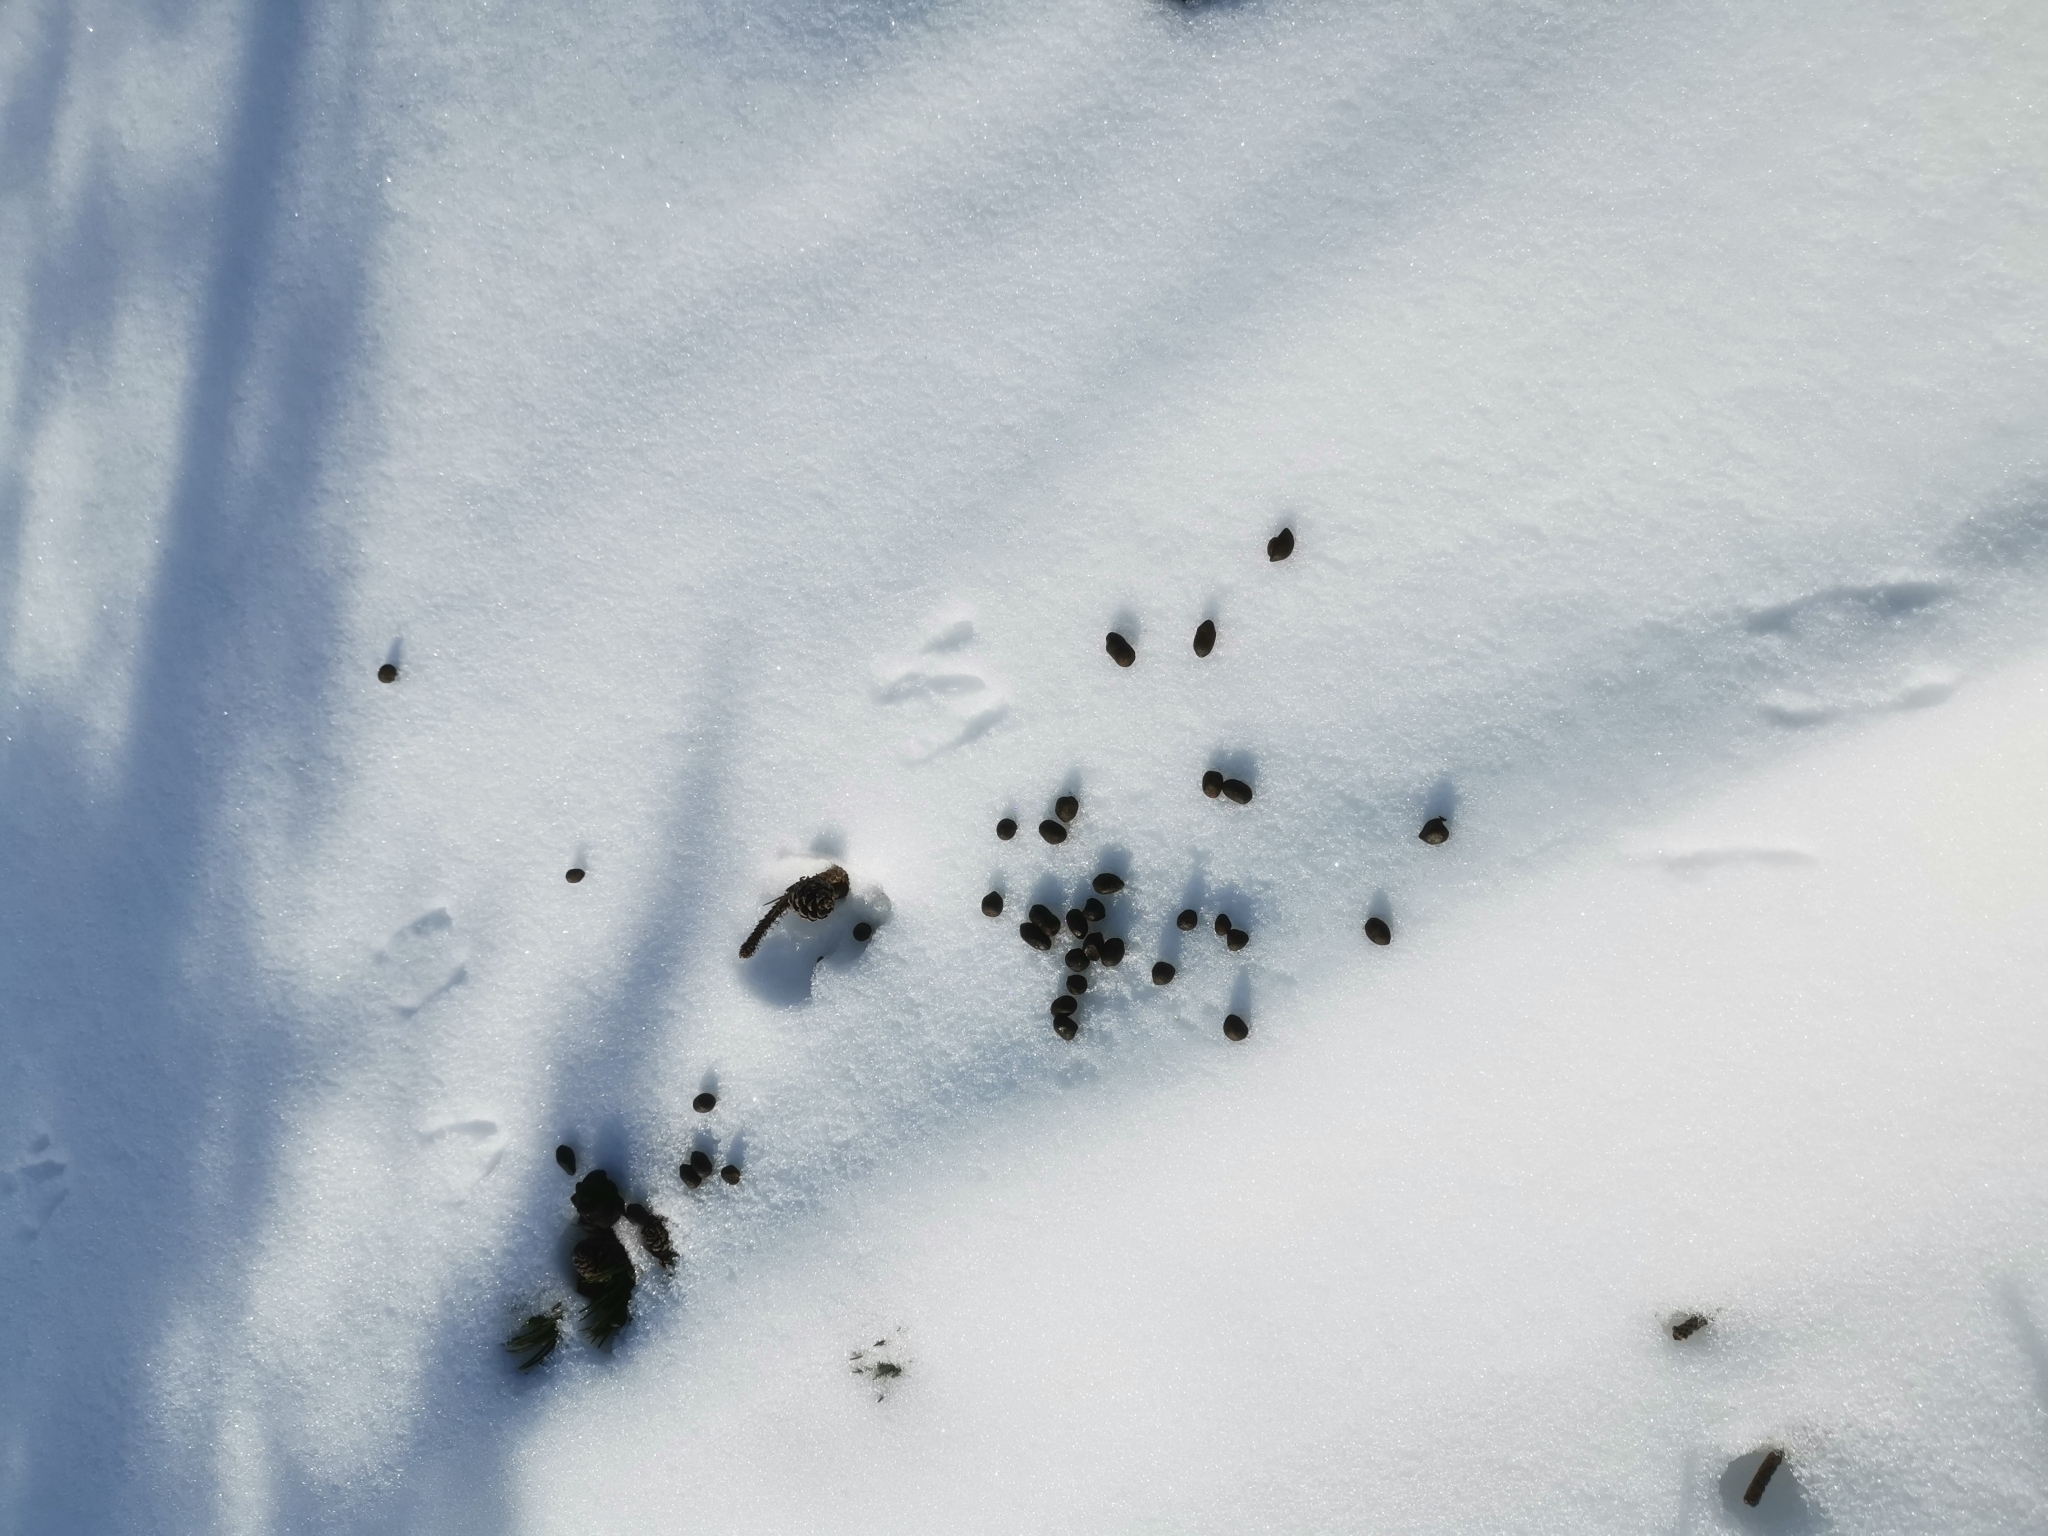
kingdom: Animalia
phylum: Chordata
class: Mammalia
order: Artiodactyla
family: Bovidae
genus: Rupicapra
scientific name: Rupicapra rupicapra
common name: Chamois
